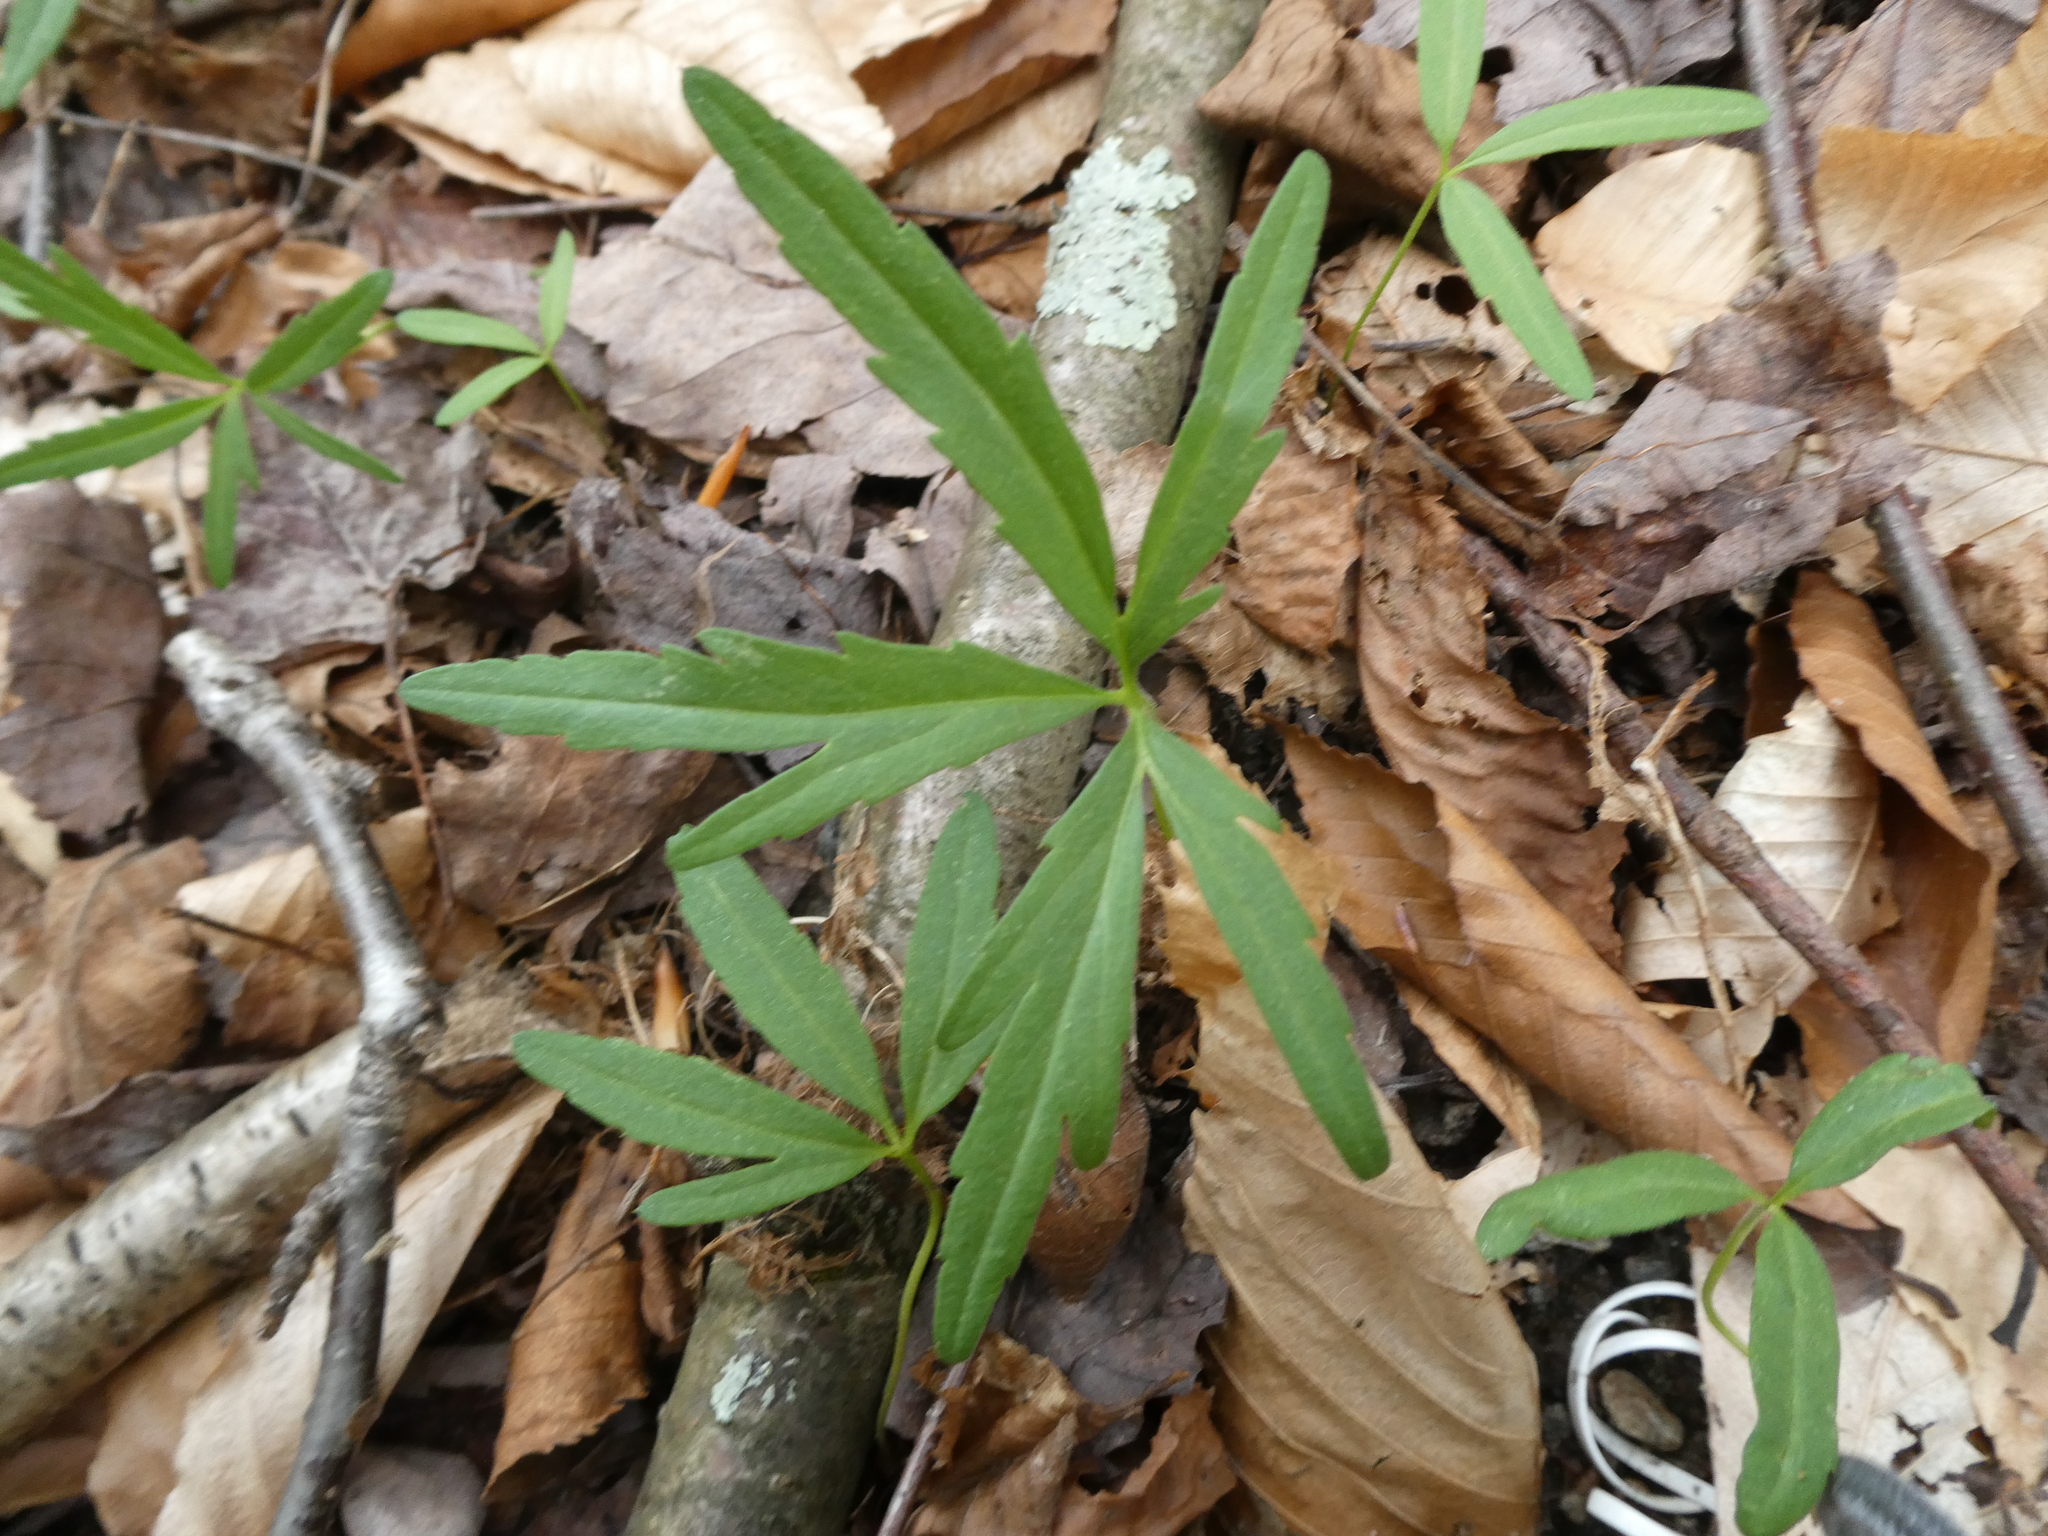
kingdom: Plantae
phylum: Tracheophyta
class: Magnoliopsida
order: Brassicales
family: Brassicaceae
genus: Cardamine
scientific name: Cardamine concatenata
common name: Cut-leaf toothcup
